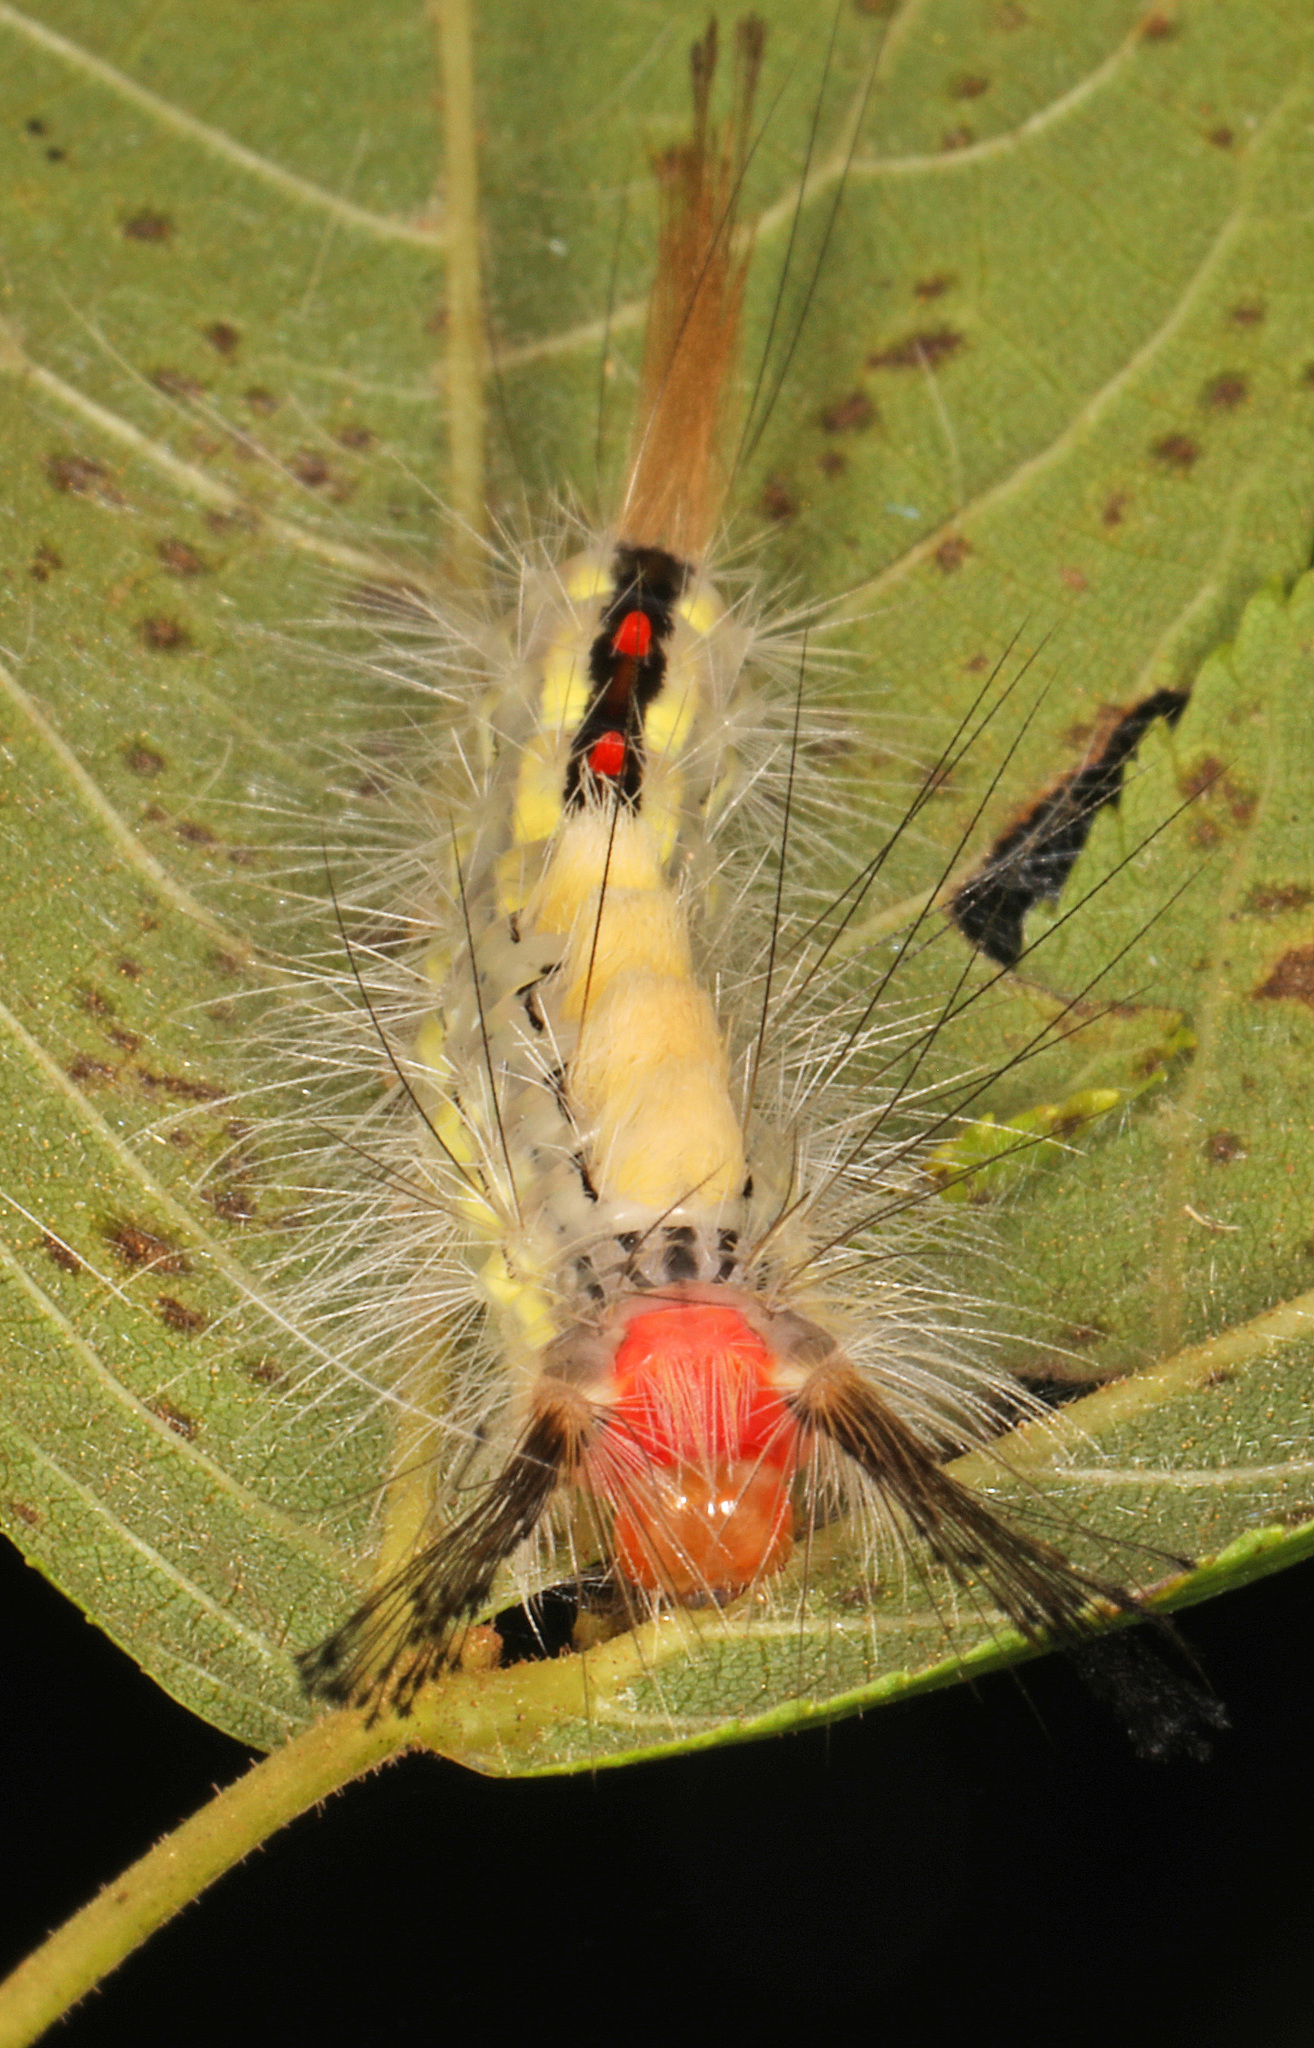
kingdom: Animalia
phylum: Arthropoda
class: Insecta
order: Lepidoptera
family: Erebidae
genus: Orgyia
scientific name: Orgyia leucostigma
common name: White-marked tussock moth
